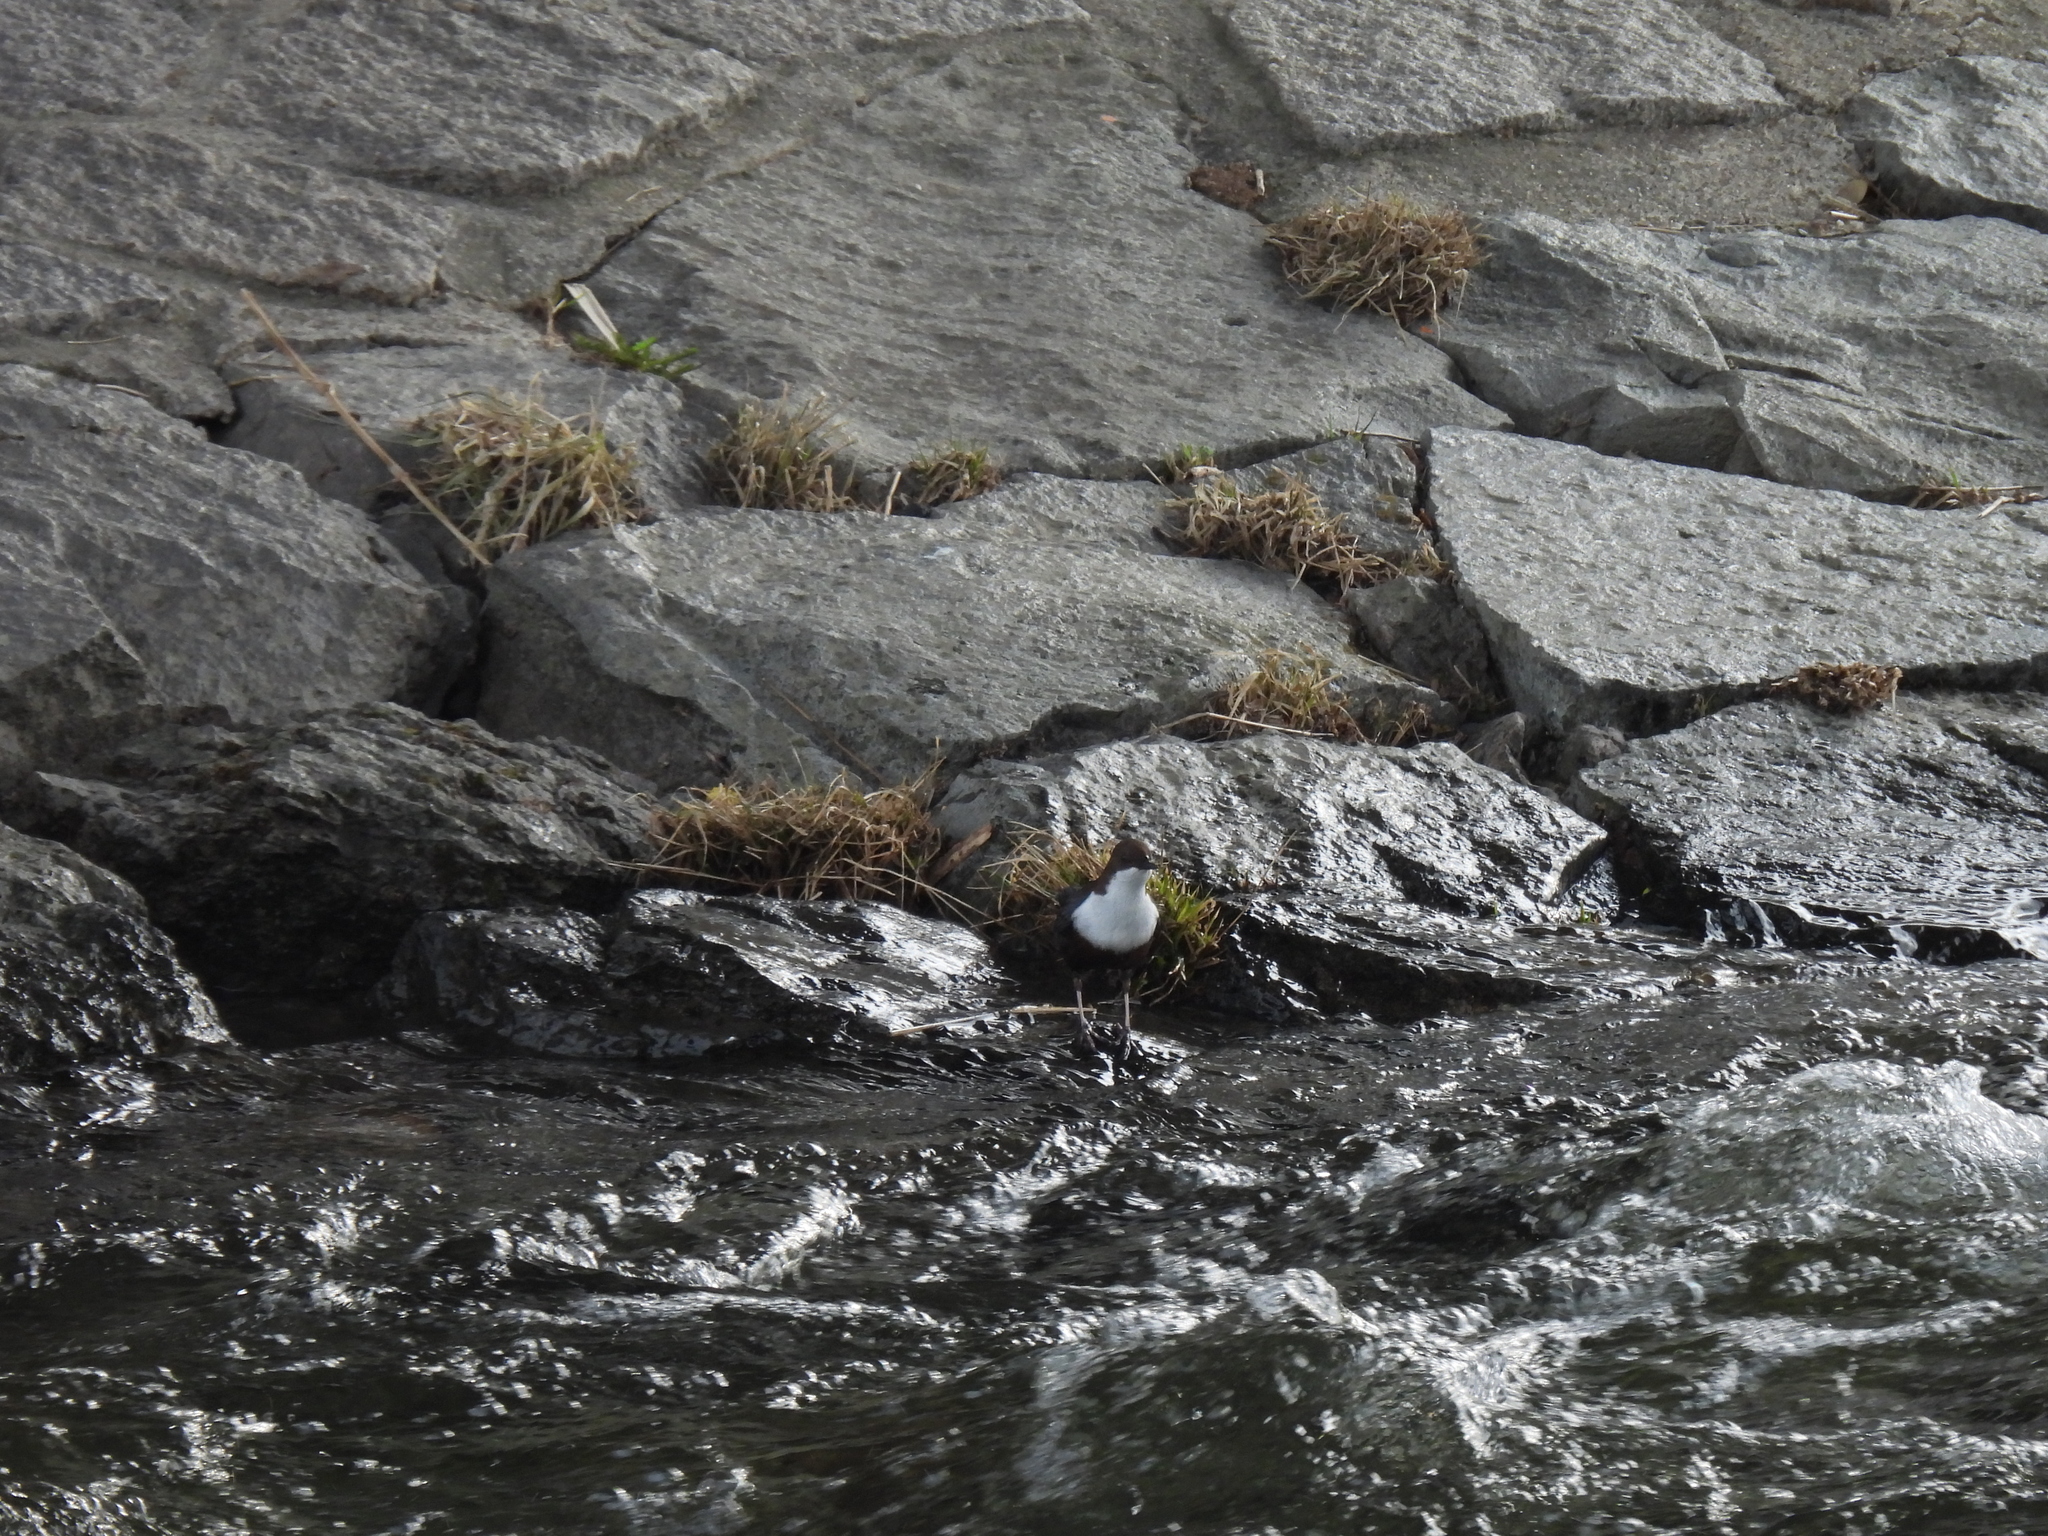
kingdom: Animalia
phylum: Chordata
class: Aves
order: Passeriformes
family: Cinclidae
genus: Cinclus
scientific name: Cinclus cinclus
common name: White-throated dipper
